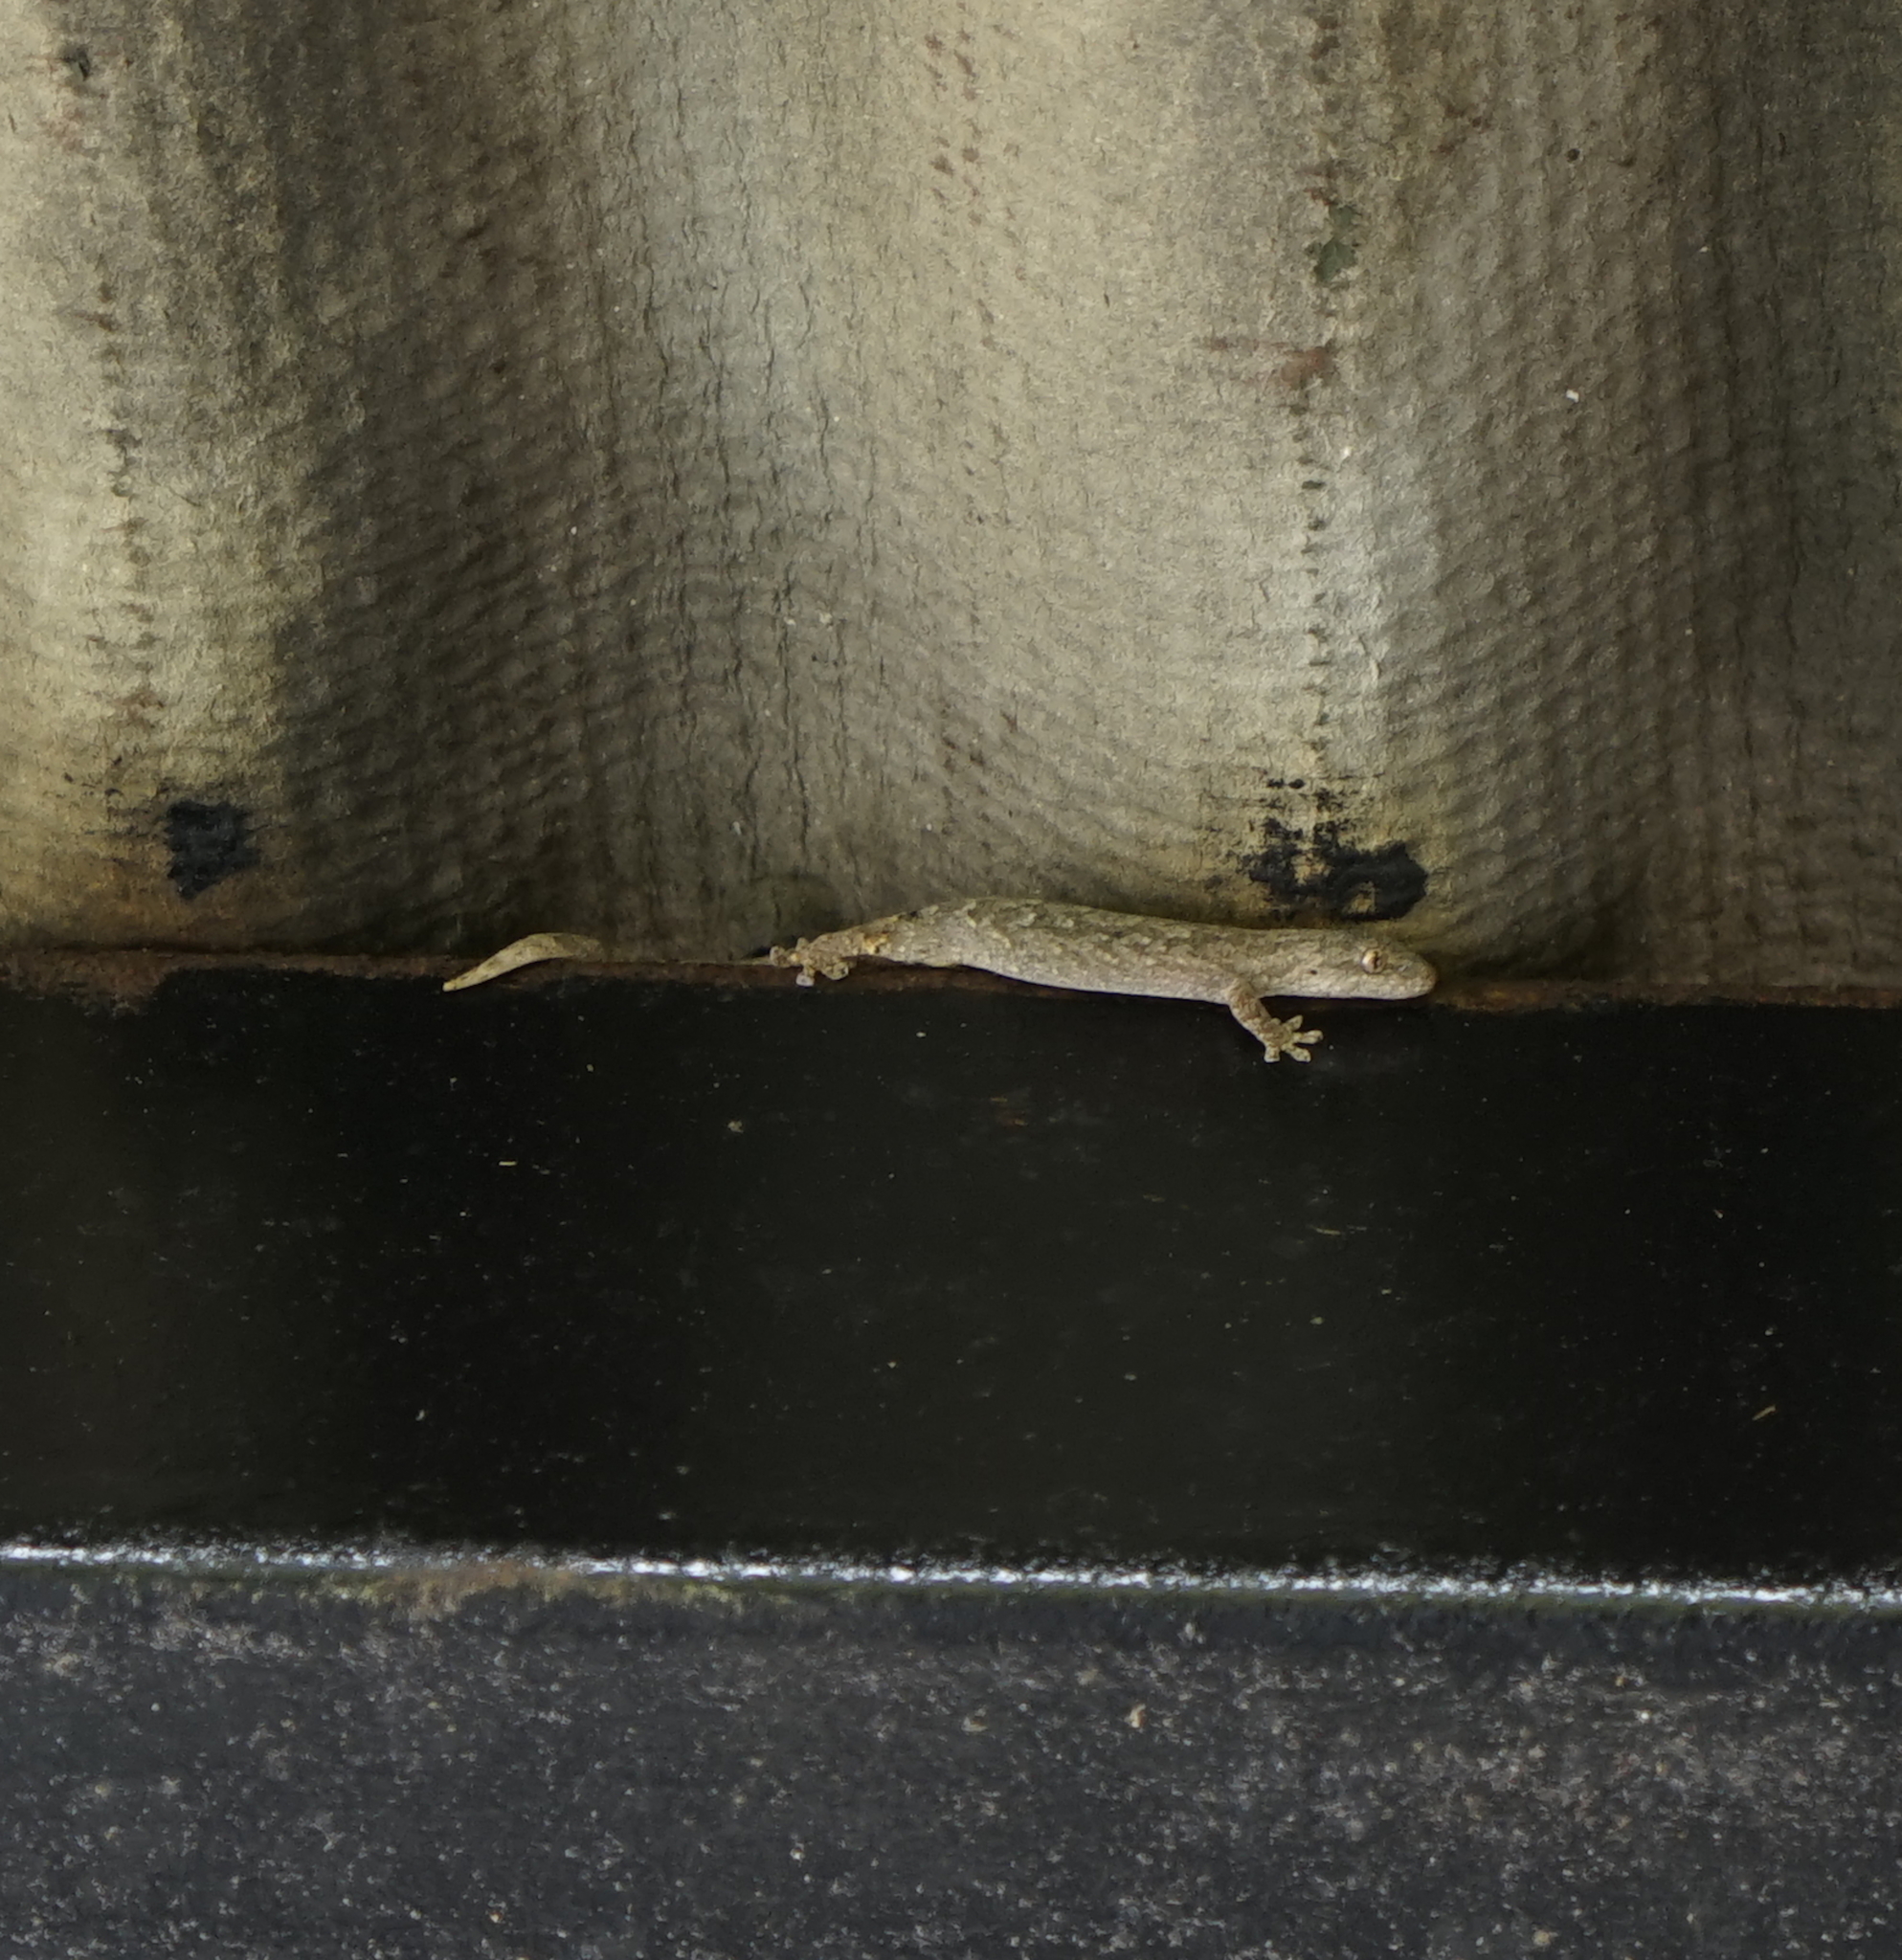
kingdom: Animalia
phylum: Chordata
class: Squamata
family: Gekkonidae
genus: Lepidodactylus
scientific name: Lepidodactylus ranauensis
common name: Sabah scaly-toed gecko
